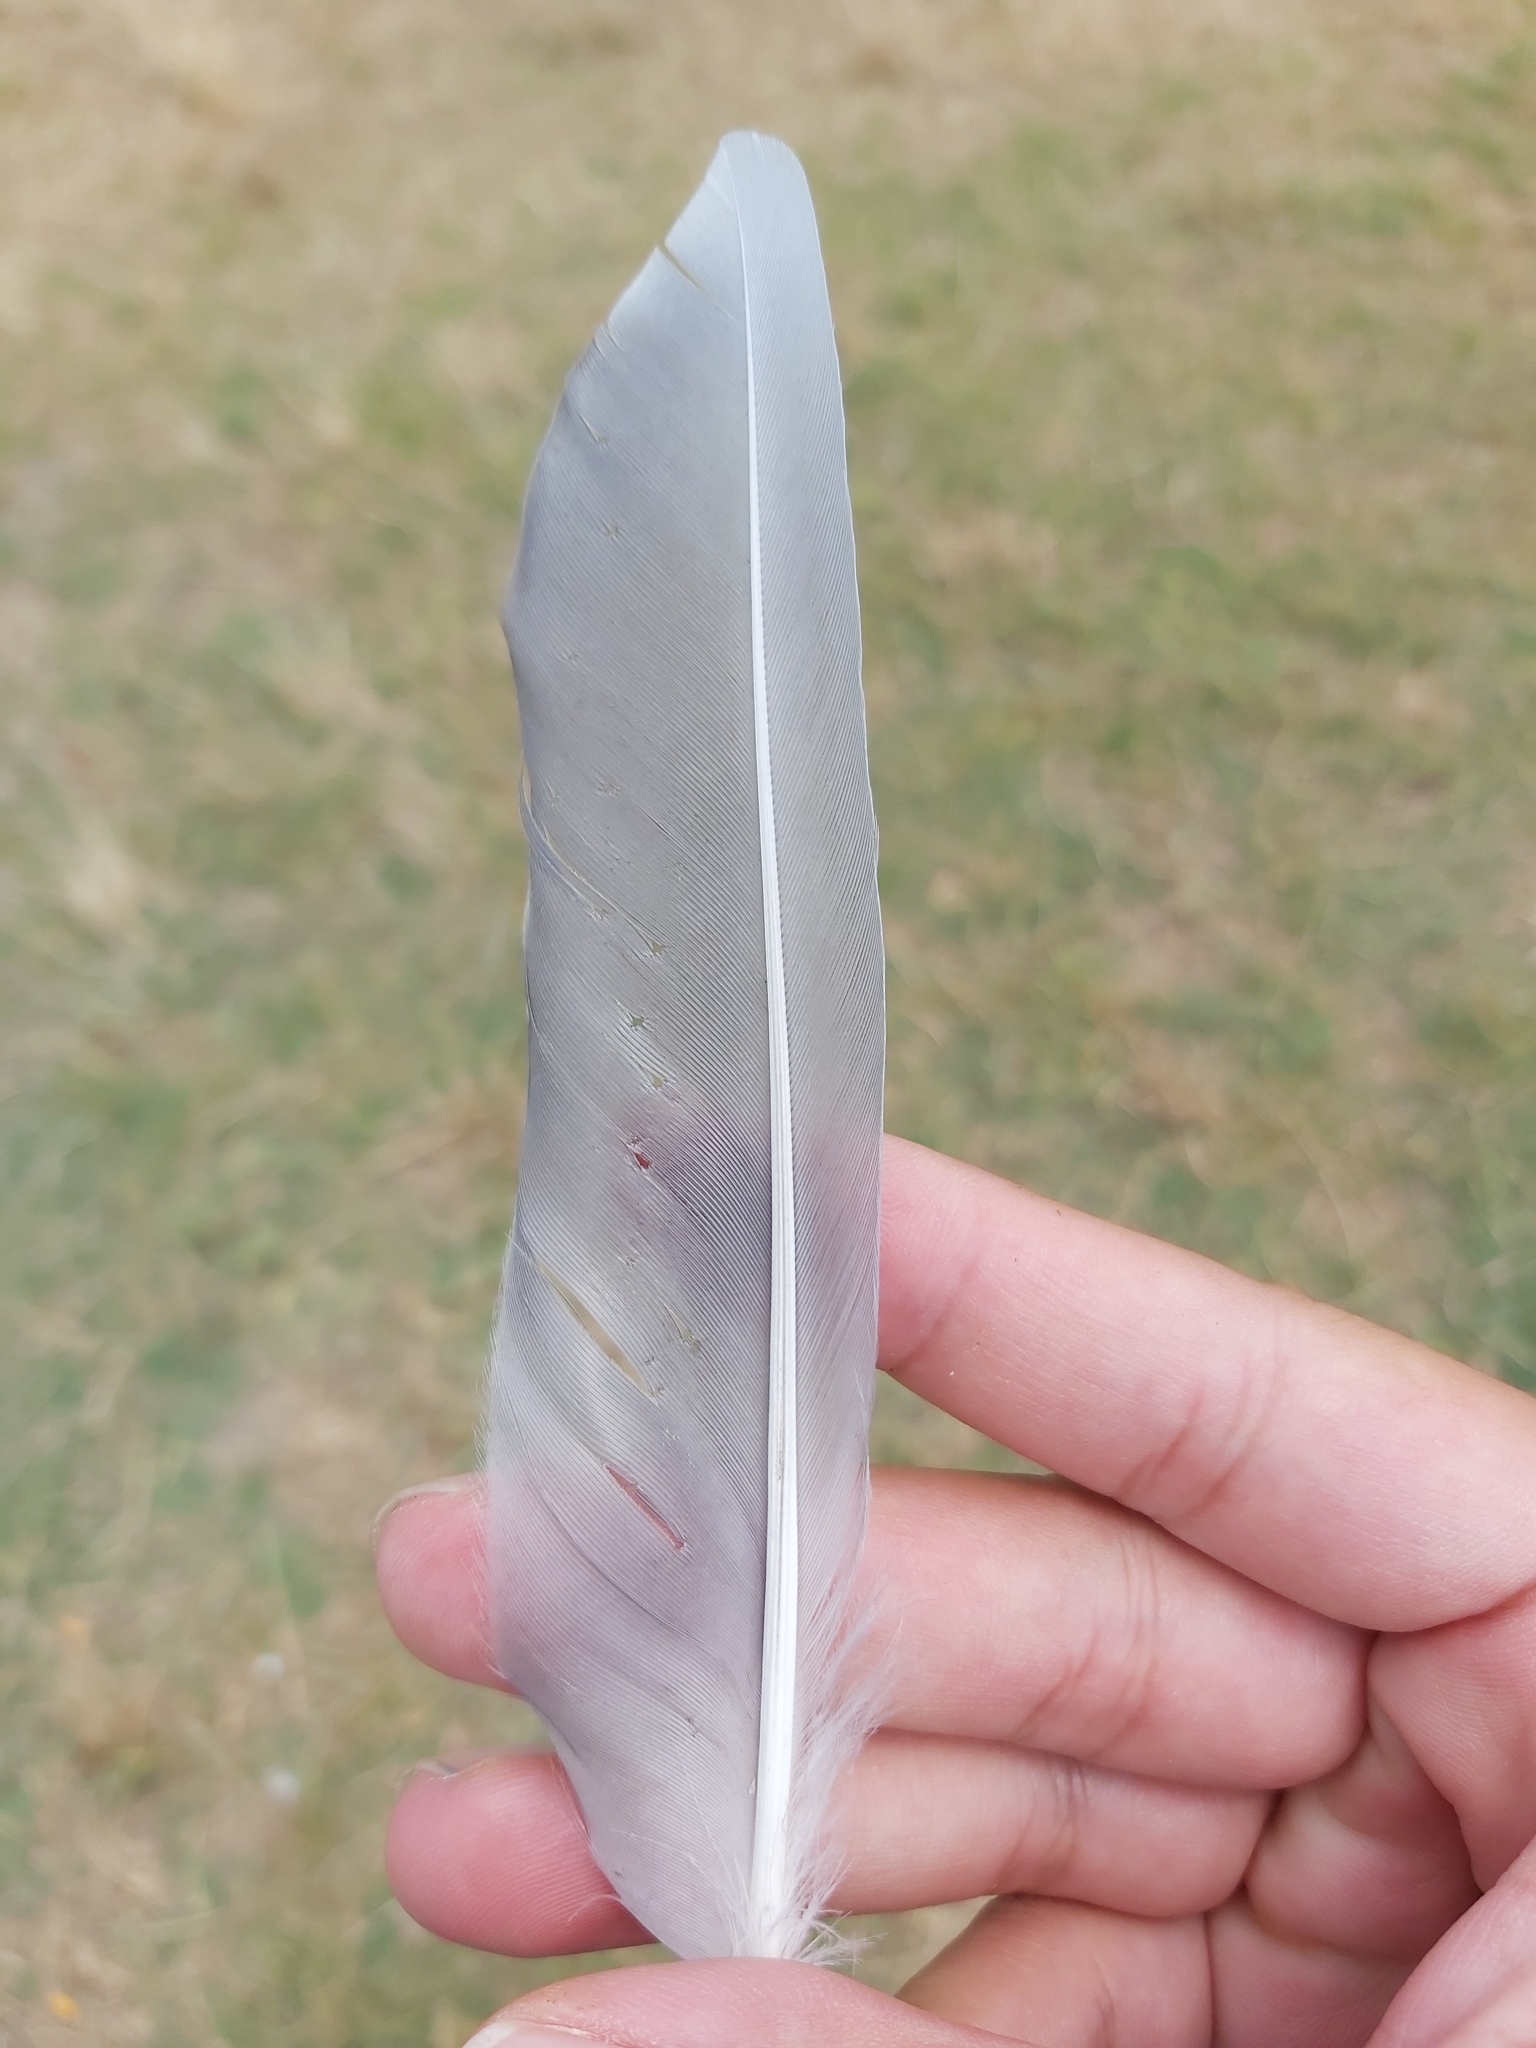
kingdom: Animalia
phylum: Chordata
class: Aves
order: Charadriiformes
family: Laridae
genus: Chroicocephalus
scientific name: Chroicocephalus novaehollandiae
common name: Silver gull
